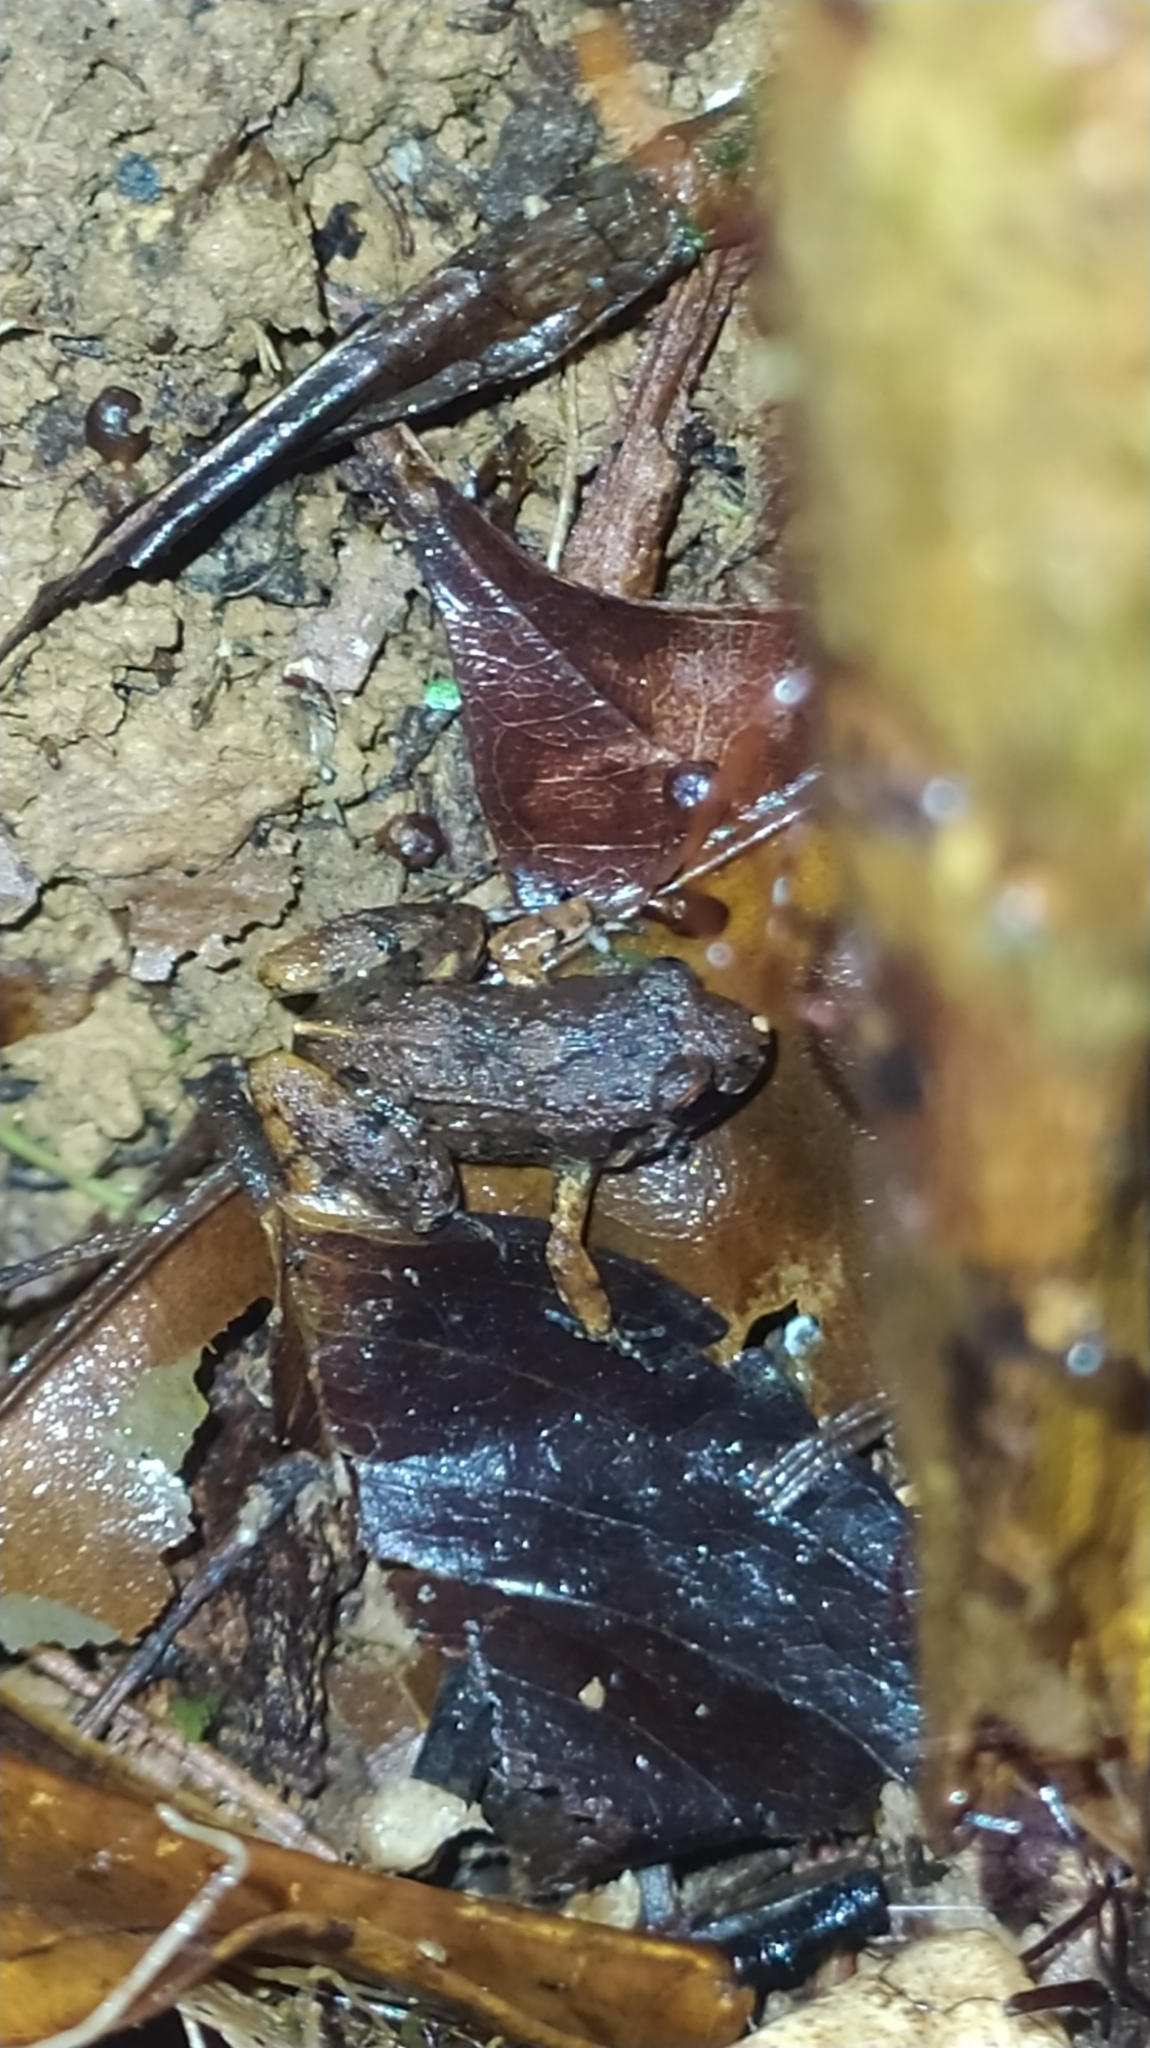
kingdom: Animalia
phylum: Chordata
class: Amphibia
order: Anura
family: Leptodactylidae
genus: Adenomera
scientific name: Adenomera andreae
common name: Lowland tropical bullfrog
